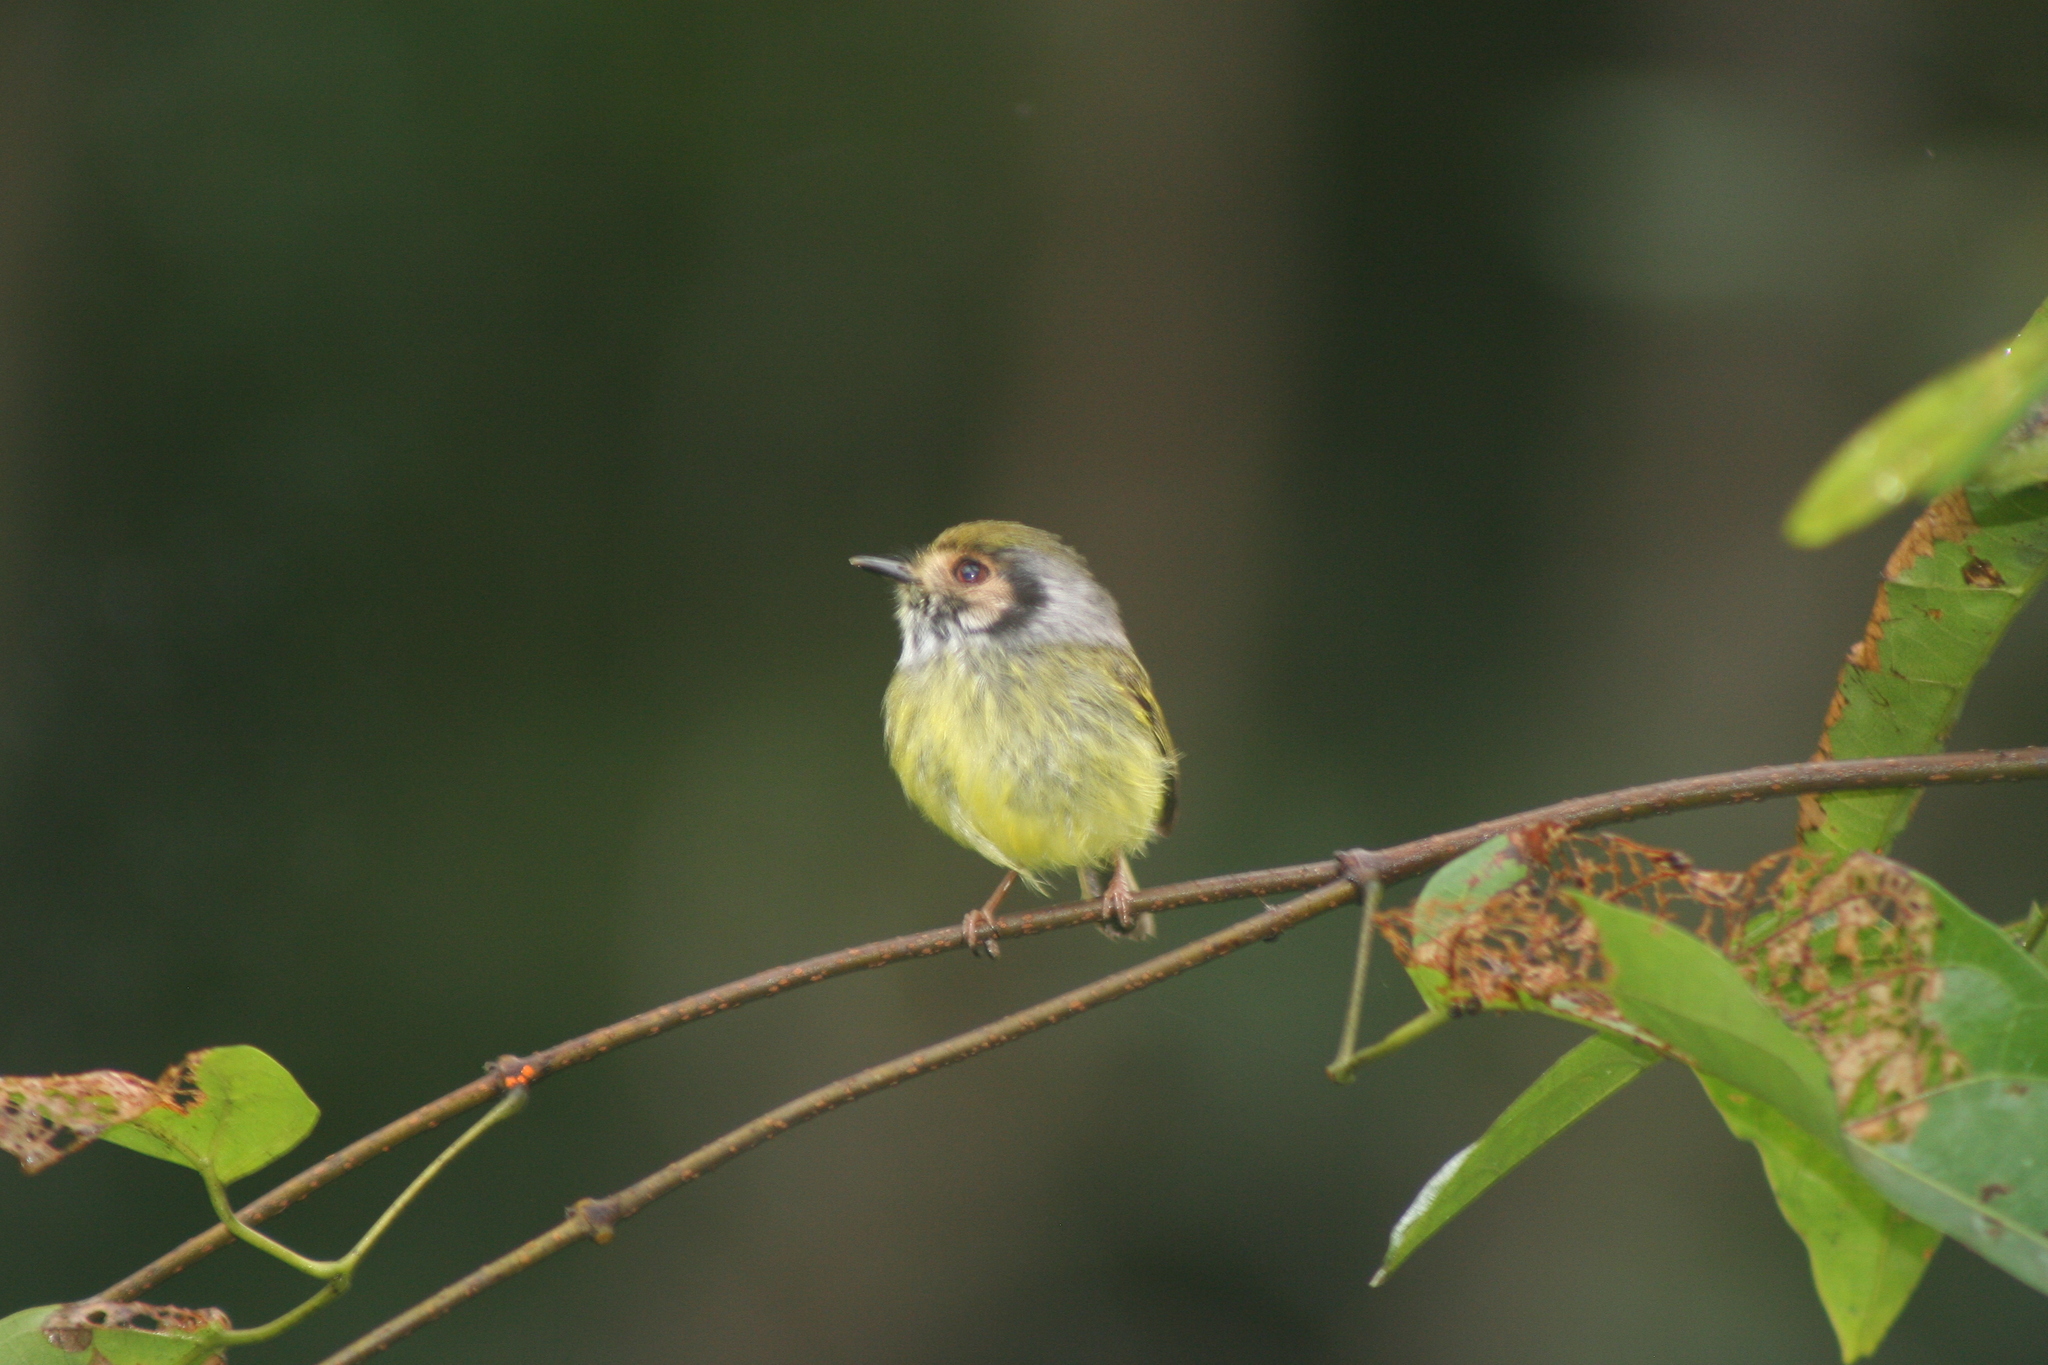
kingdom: Animalia
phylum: Chordata
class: Aves
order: Passeriformes
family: Tyrannidae
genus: Myiornis
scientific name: Myiornis auricularis
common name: Eared pygmy tyrant
